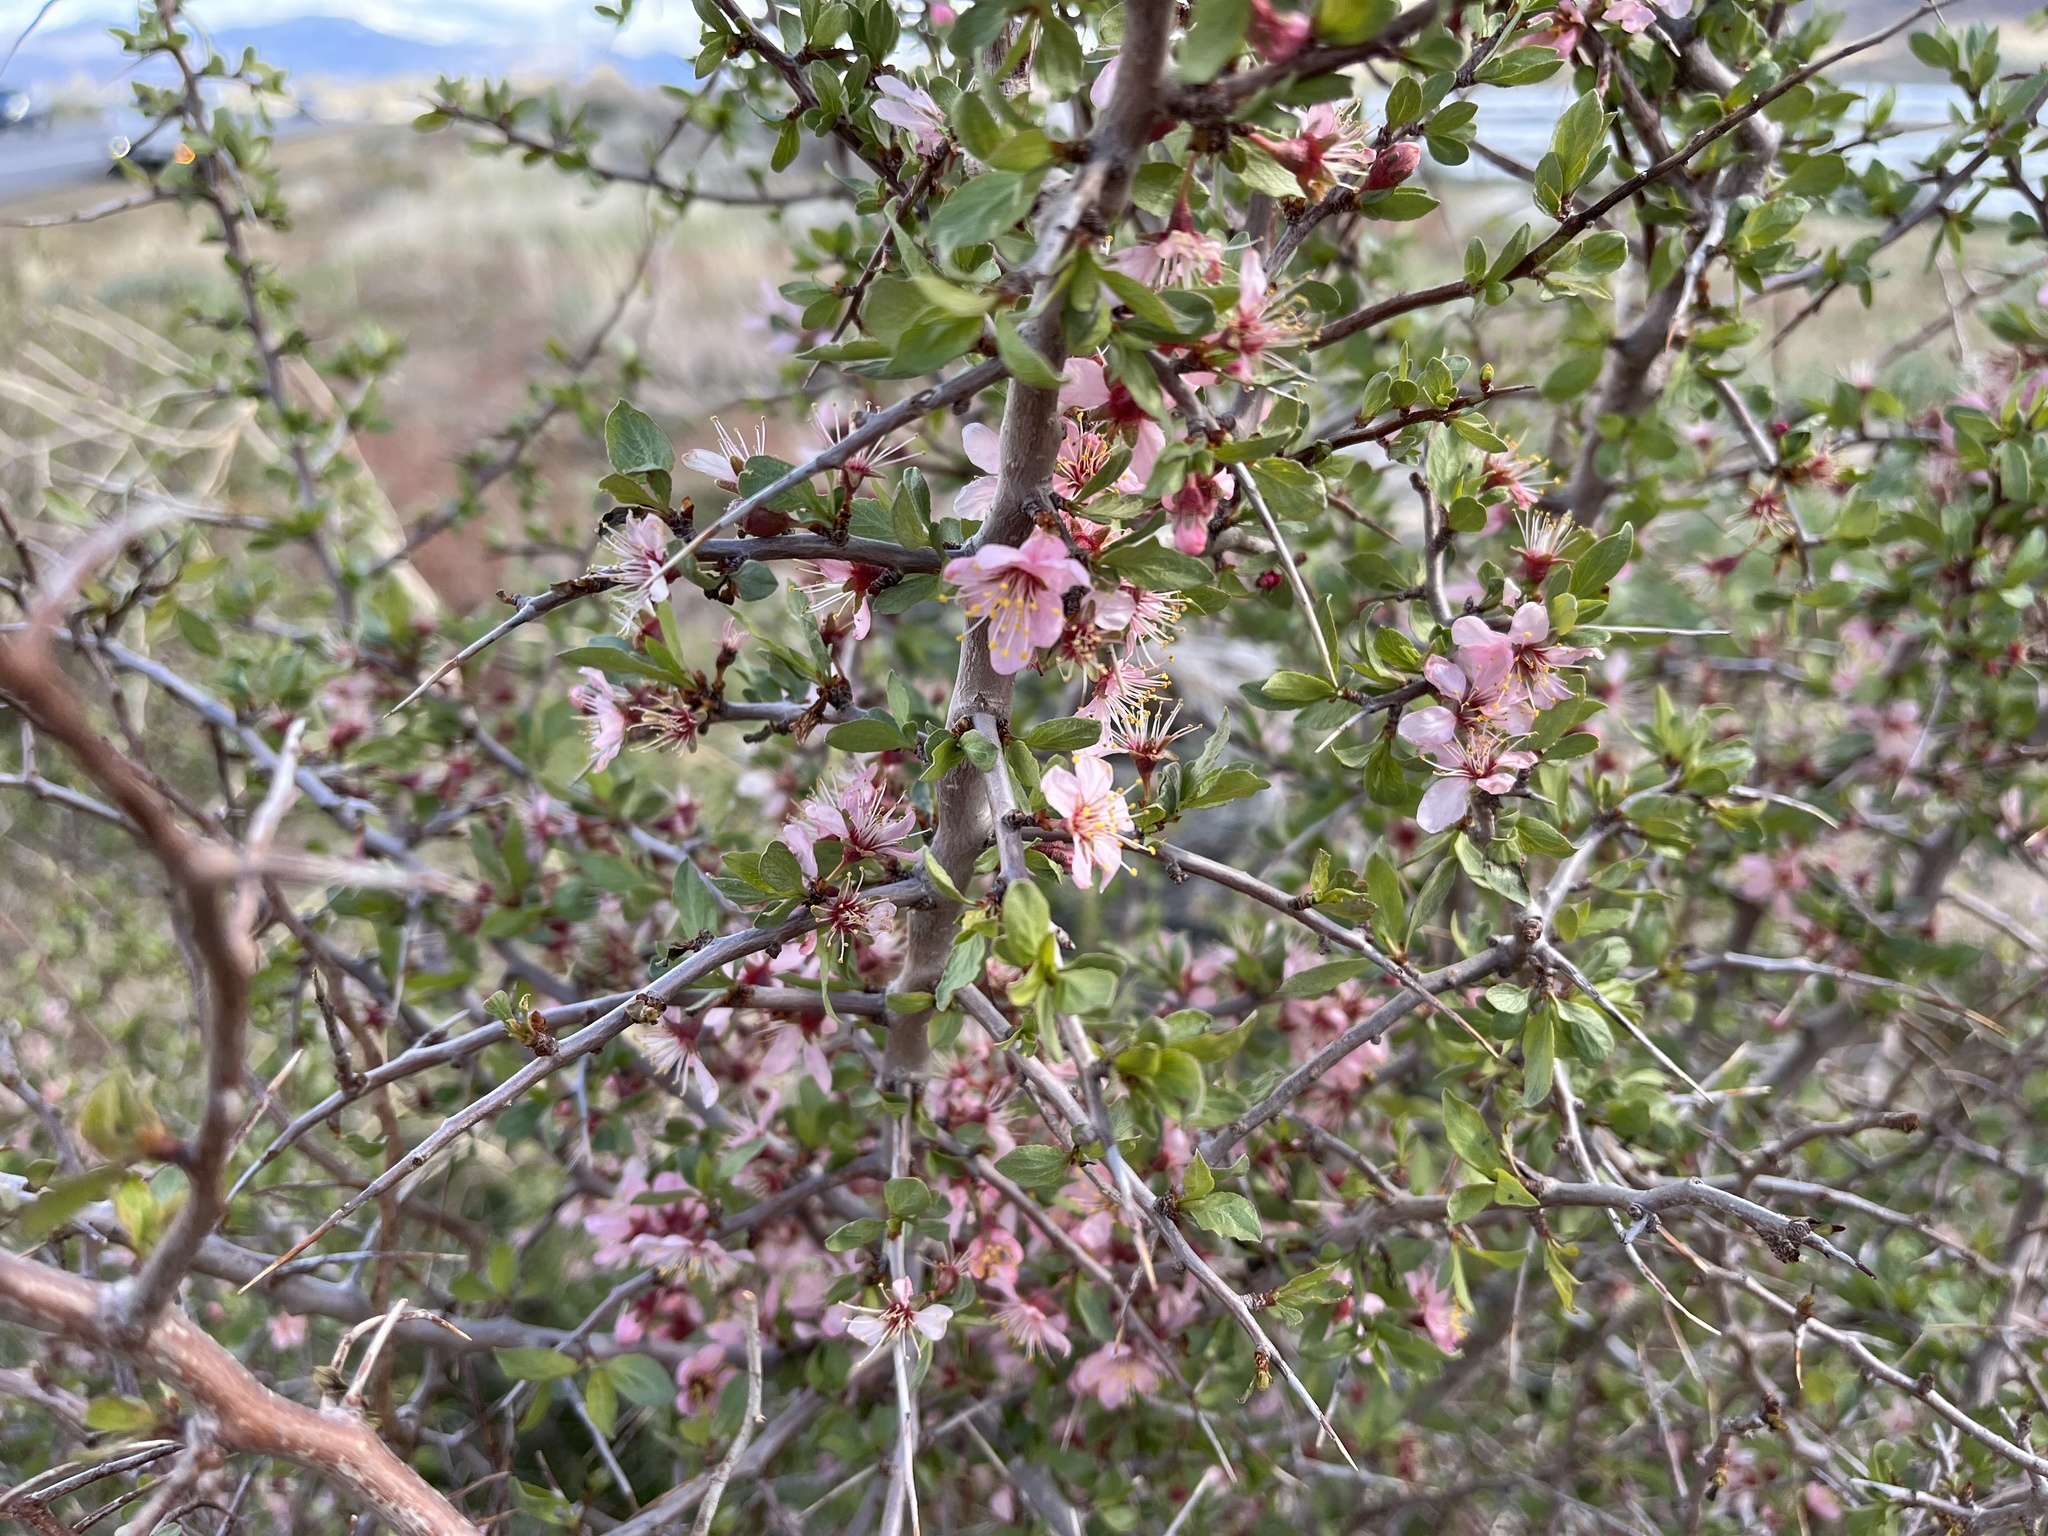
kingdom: Plantae
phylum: Tracheophyta
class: Magnoliopsida
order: Rosales
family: Rosaceae
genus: Prunus
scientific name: Prunus andersonii
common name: Desert peach
